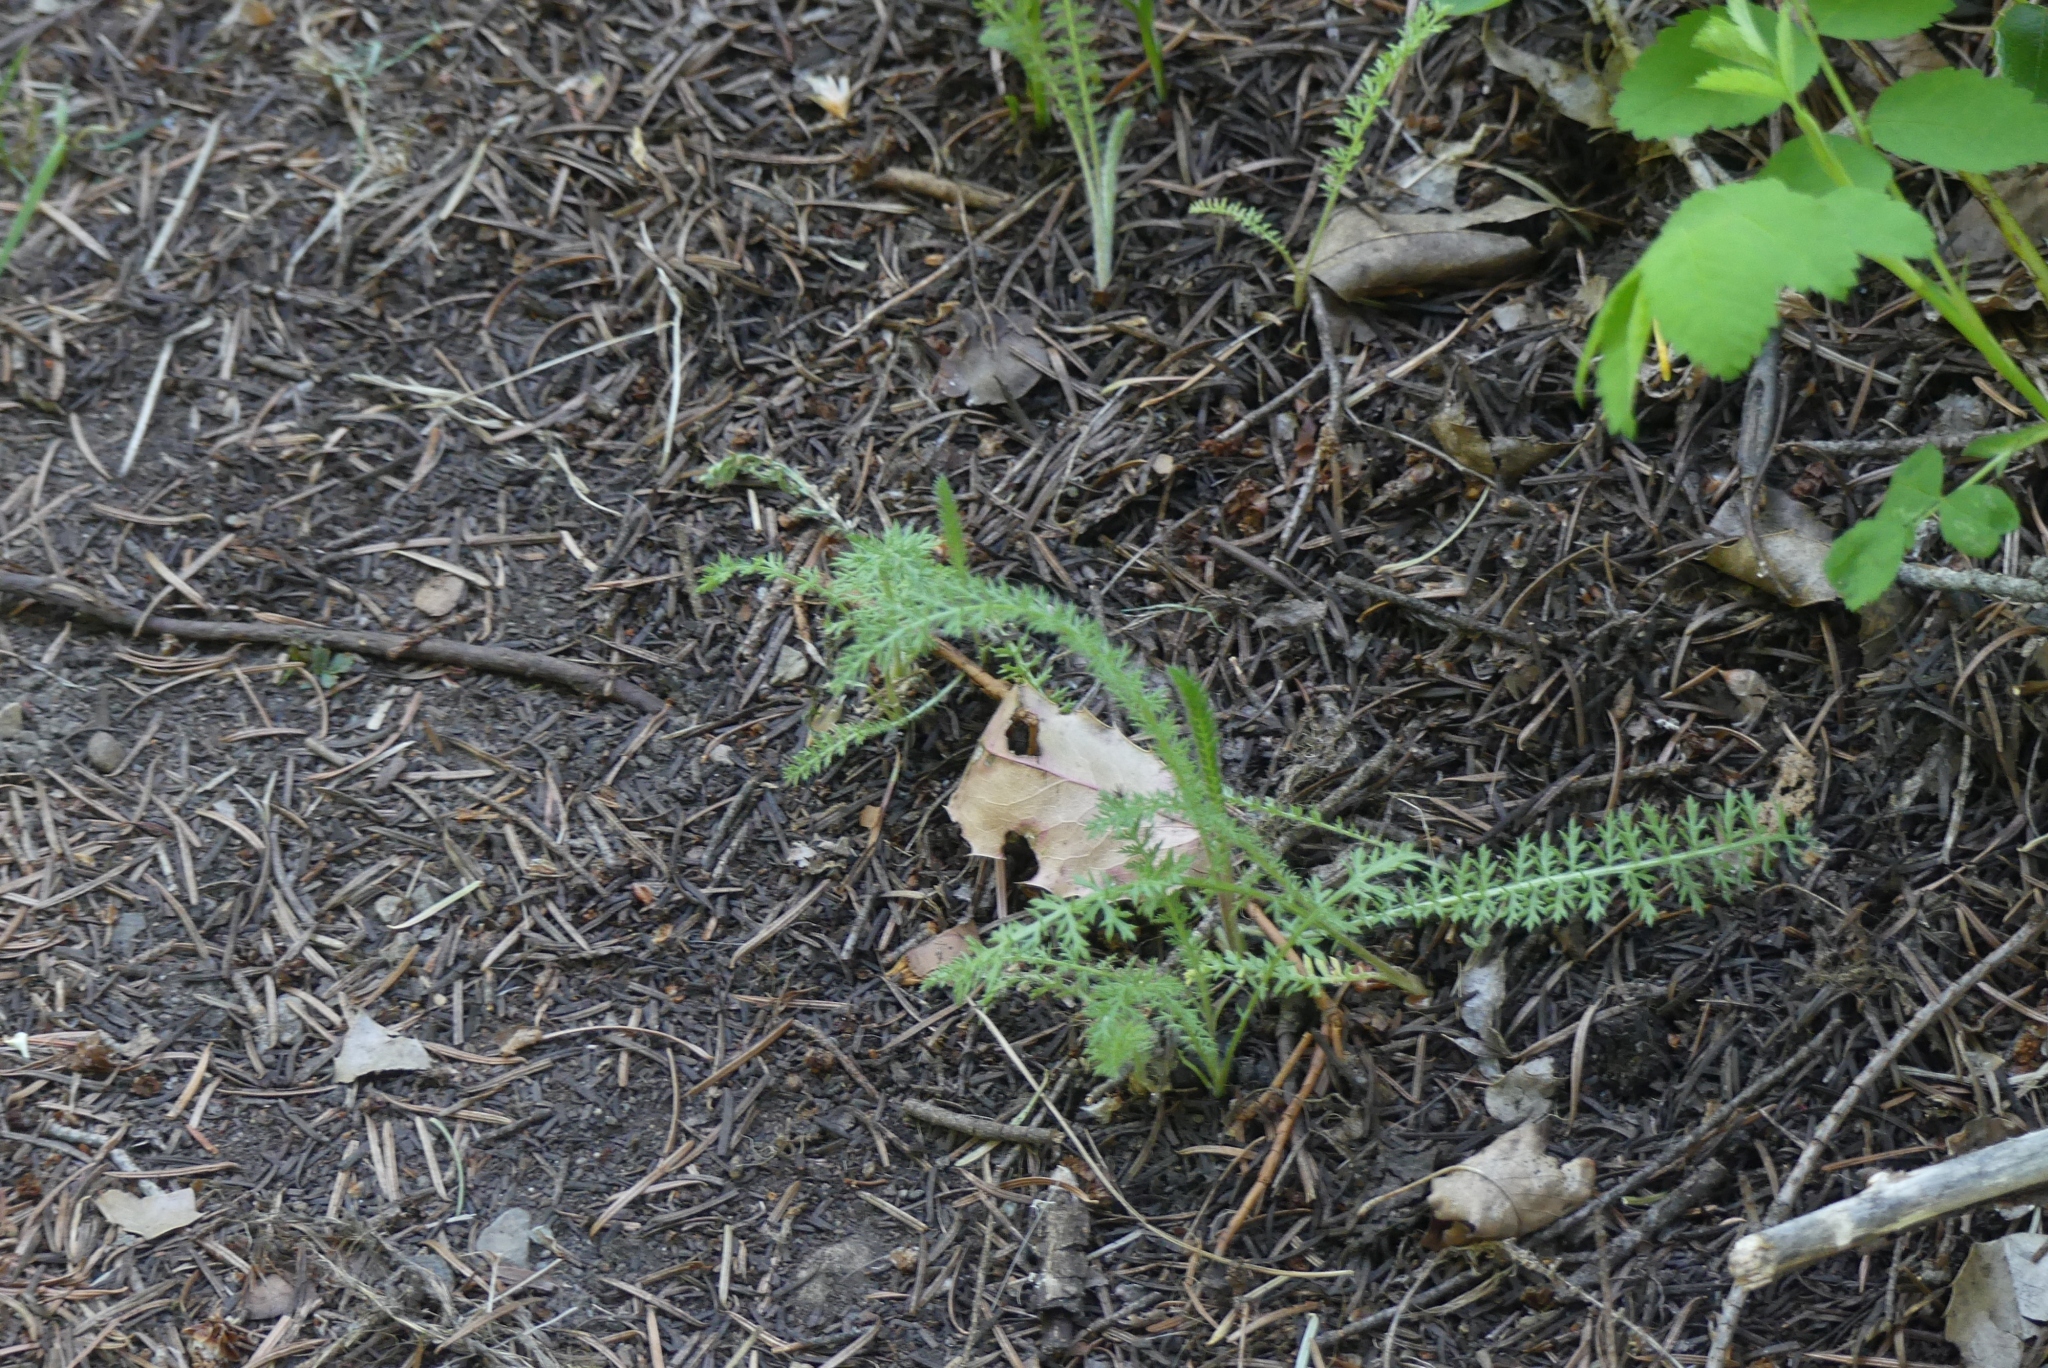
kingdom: Plantae
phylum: Tracheophyta
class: Magnoliopsida
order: Asterales
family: Asteraceae
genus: Achillea
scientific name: Achillea millefolium
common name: Yarrow
